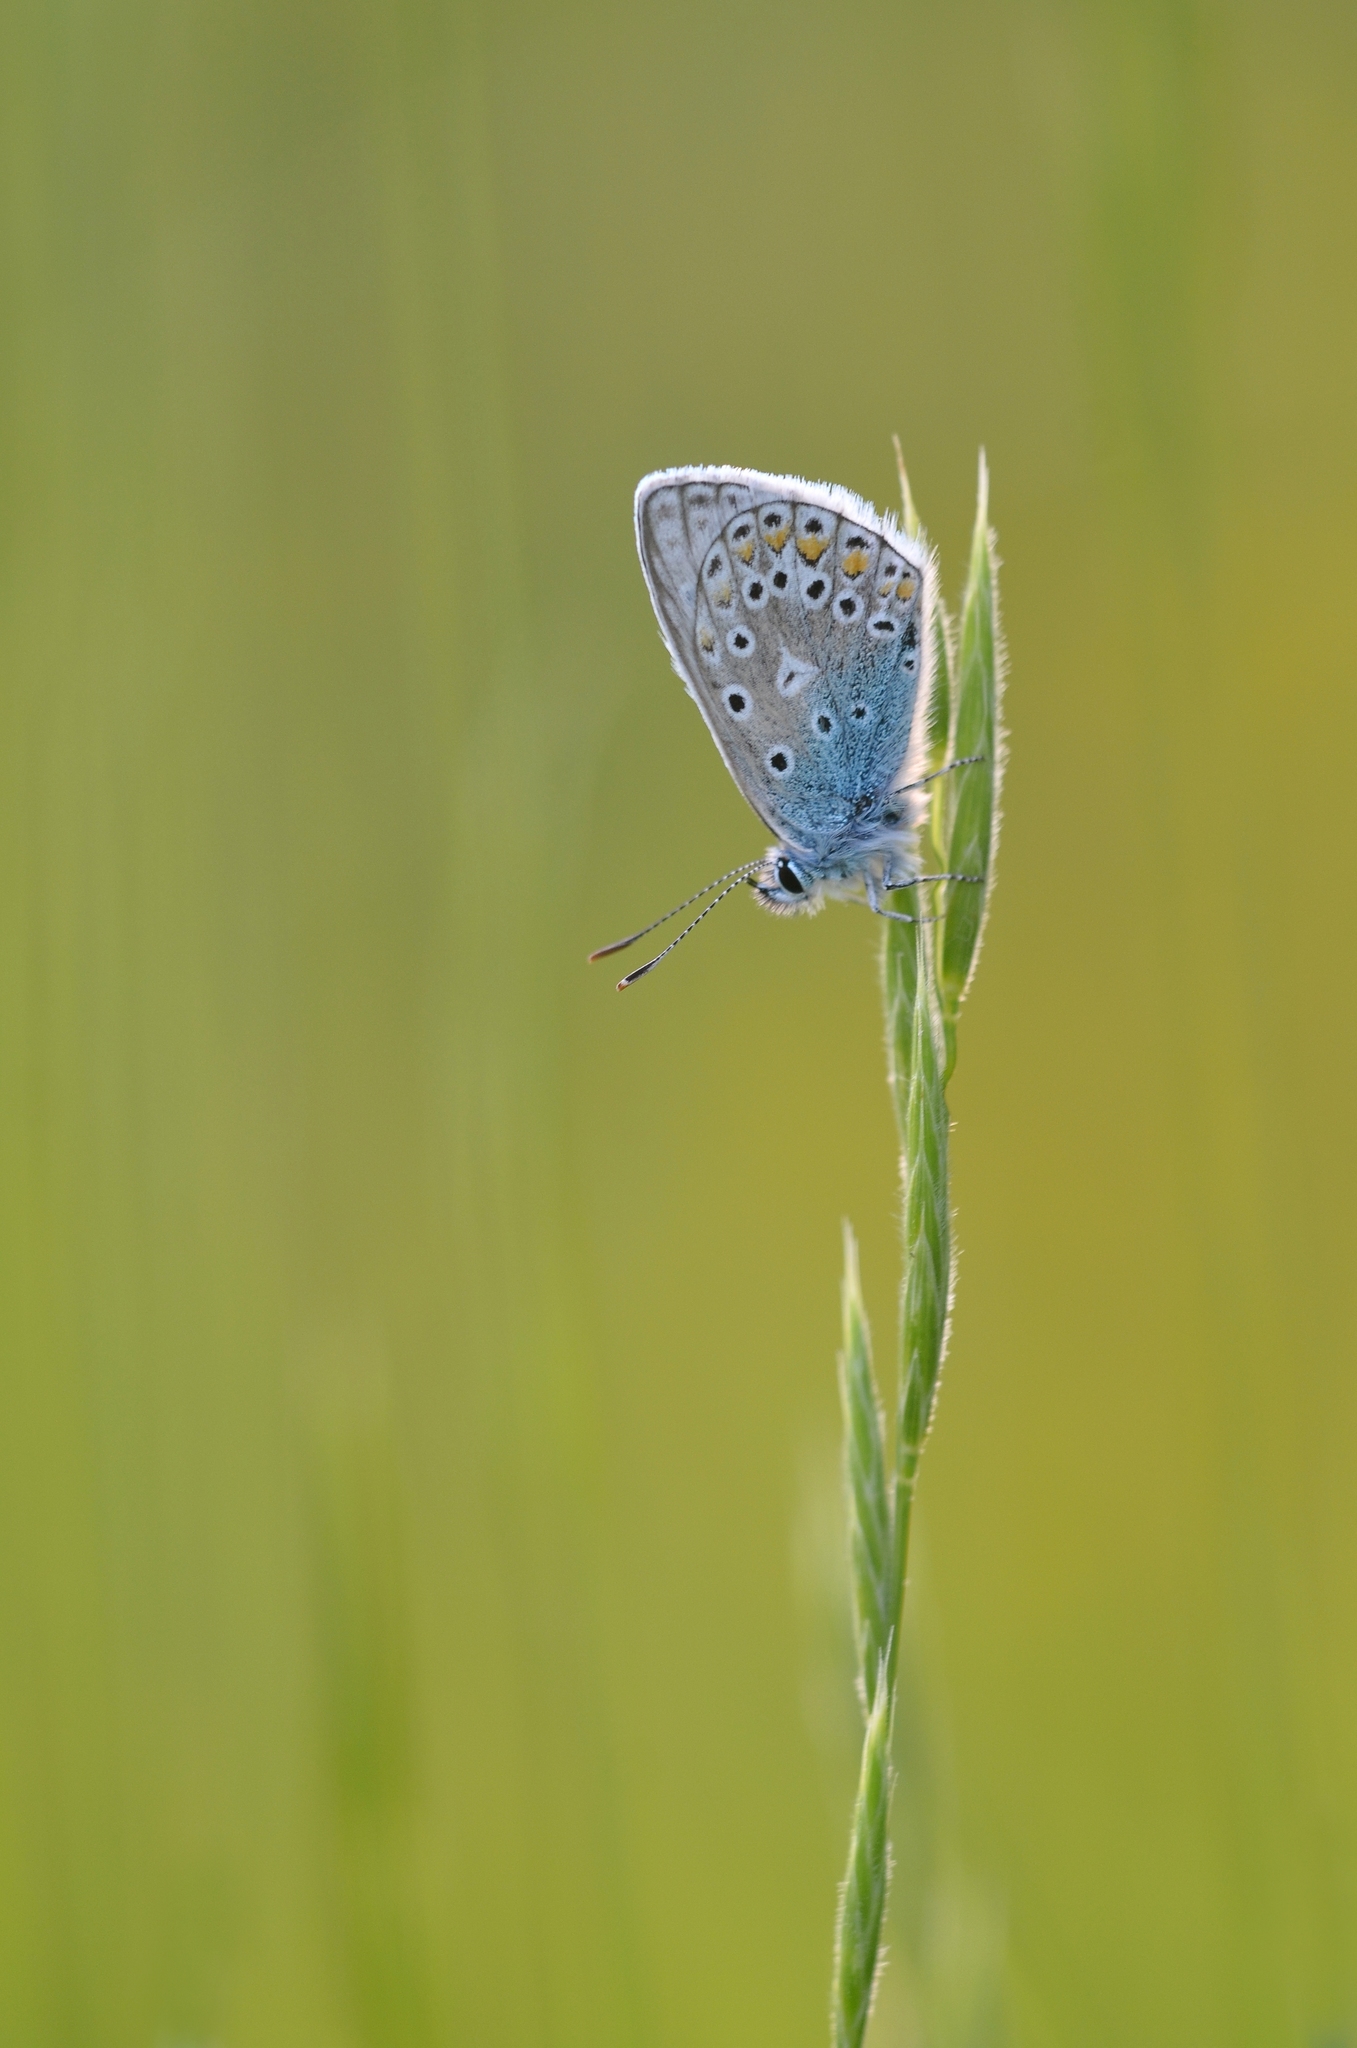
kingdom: Animalia
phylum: Arthropoda
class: Insecta
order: Lepidoptera
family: Lycaenidae
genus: Polyommatus
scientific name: Polyommatus icarus
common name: Common blue
